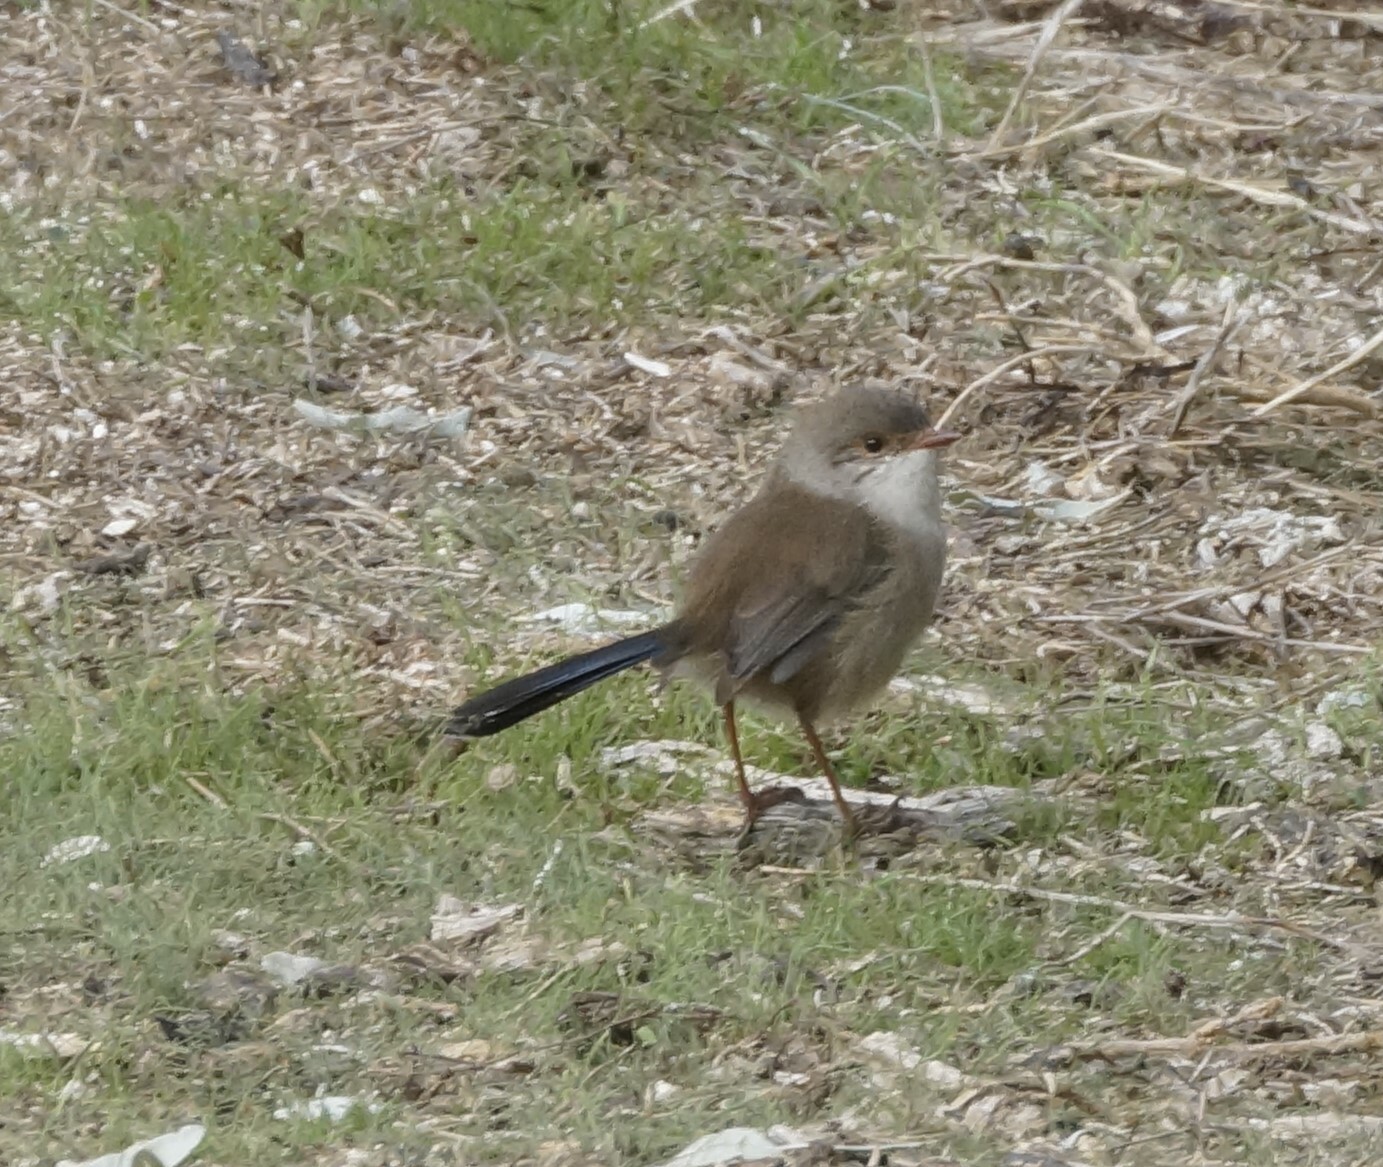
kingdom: Animalia
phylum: Chordata
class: Aves
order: Passeriformes
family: Maluridae
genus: Malurus
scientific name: Malurus cyaneus
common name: Superb fairywren
